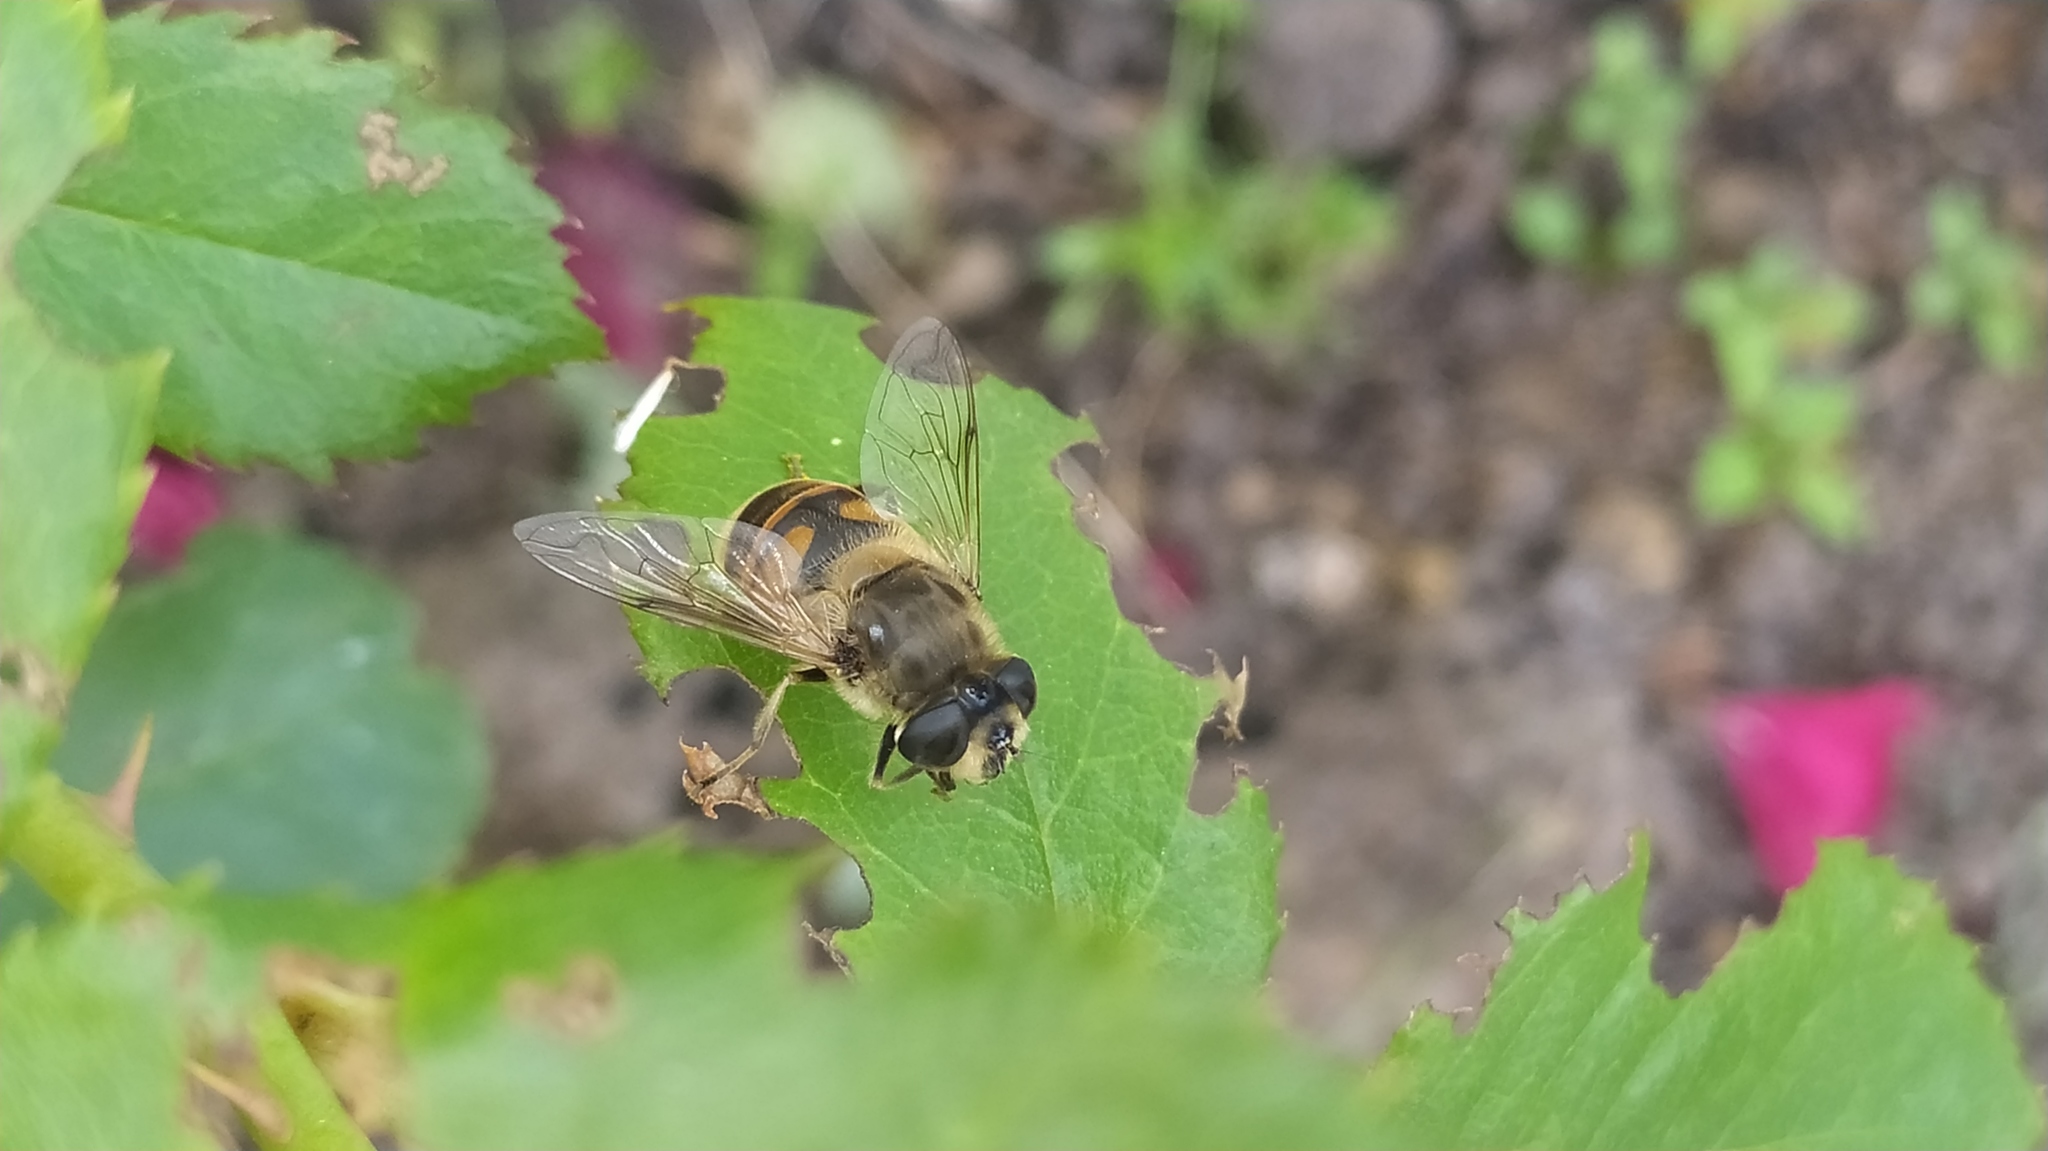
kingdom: Animalia
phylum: Arthropoda
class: Insecta
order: Diptera
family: Syrphidae
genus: Eristalis
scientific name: Eristalis tenax
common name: Drone fly
